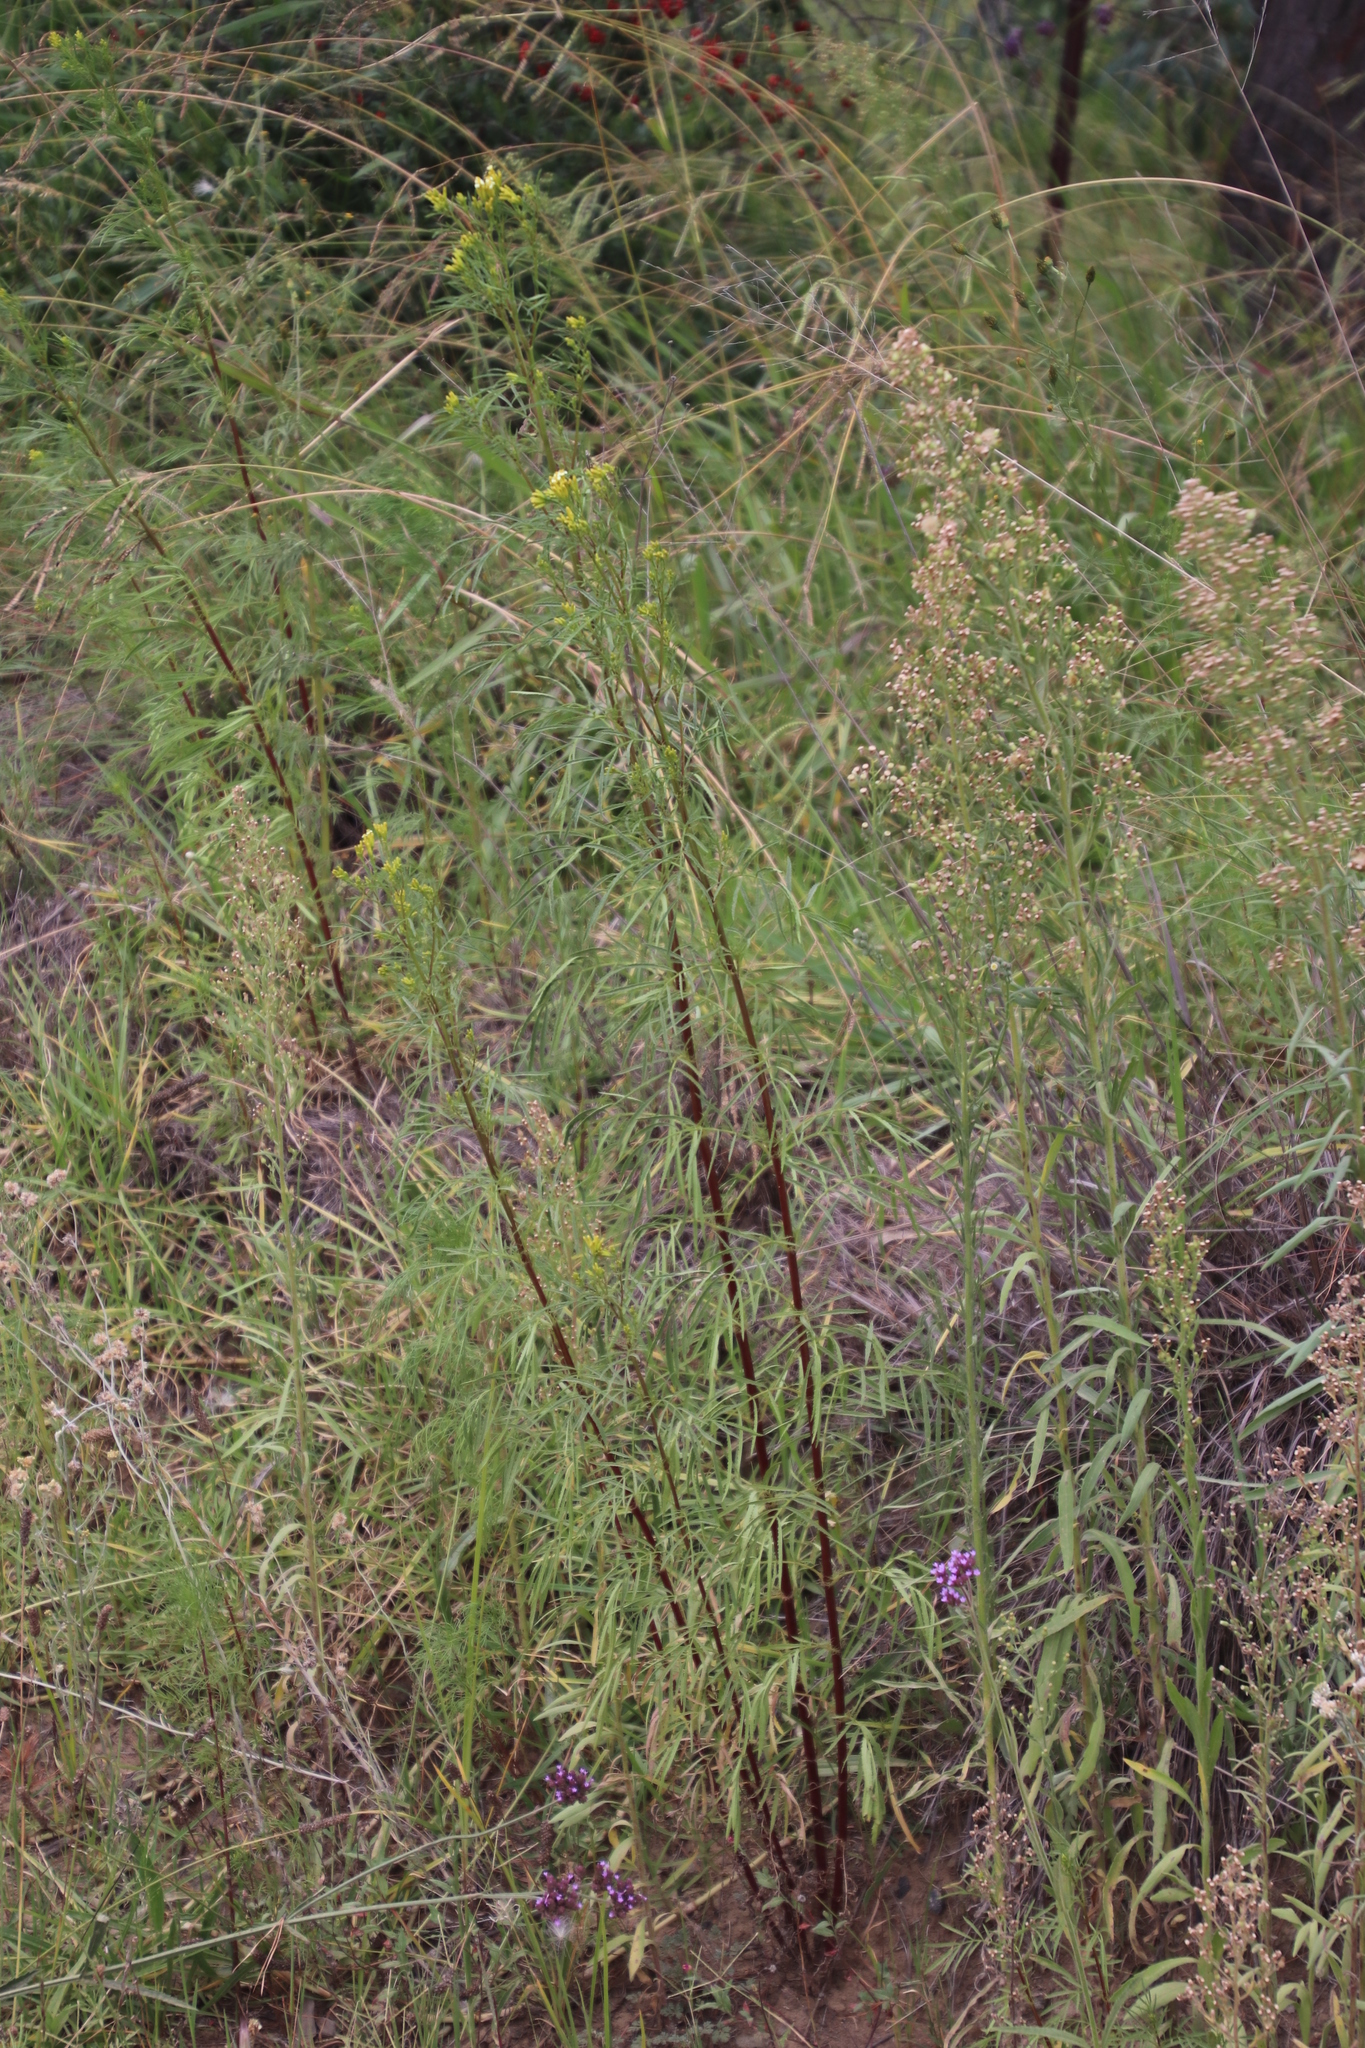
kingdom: Plantae
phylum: Tracheophyta
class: Magnoliopsida
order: Asterales
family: Asteraceae
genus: Tagetes
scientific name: Tagetes minuta
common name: Muster john henry
